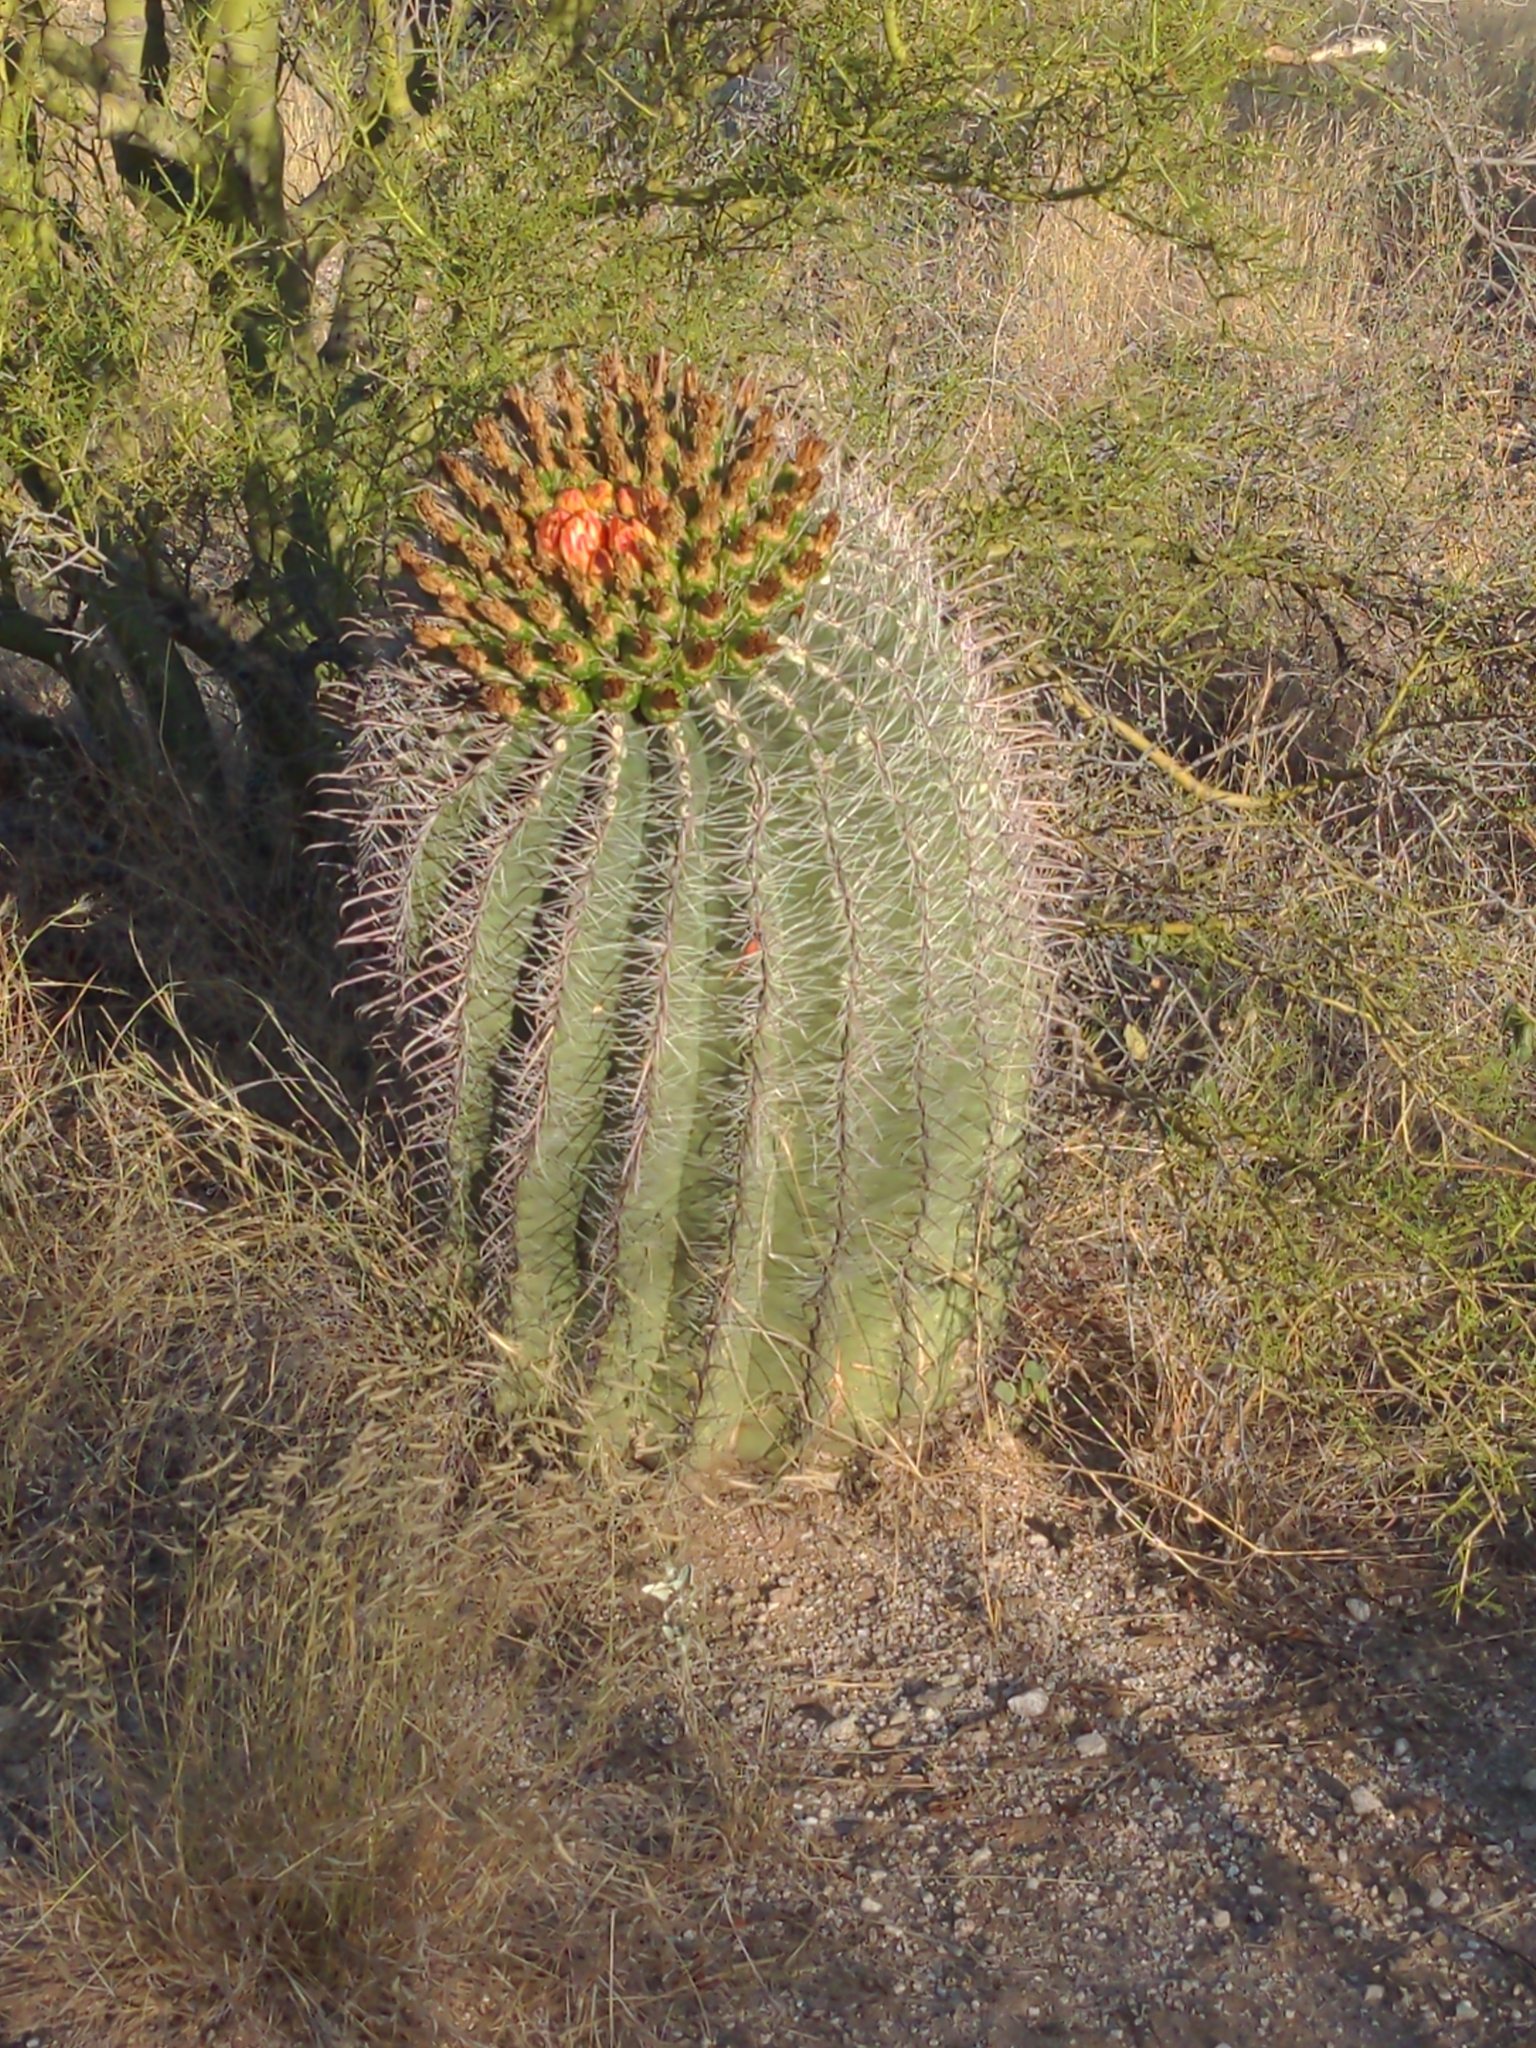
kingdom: Plantae
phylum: Tracheophyta
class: Magnoliopsida
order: Caryophyllales
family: Cactaceae
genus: Ferocactus
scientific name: Ferocactus wislizeni
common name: Candy barrel cactus
